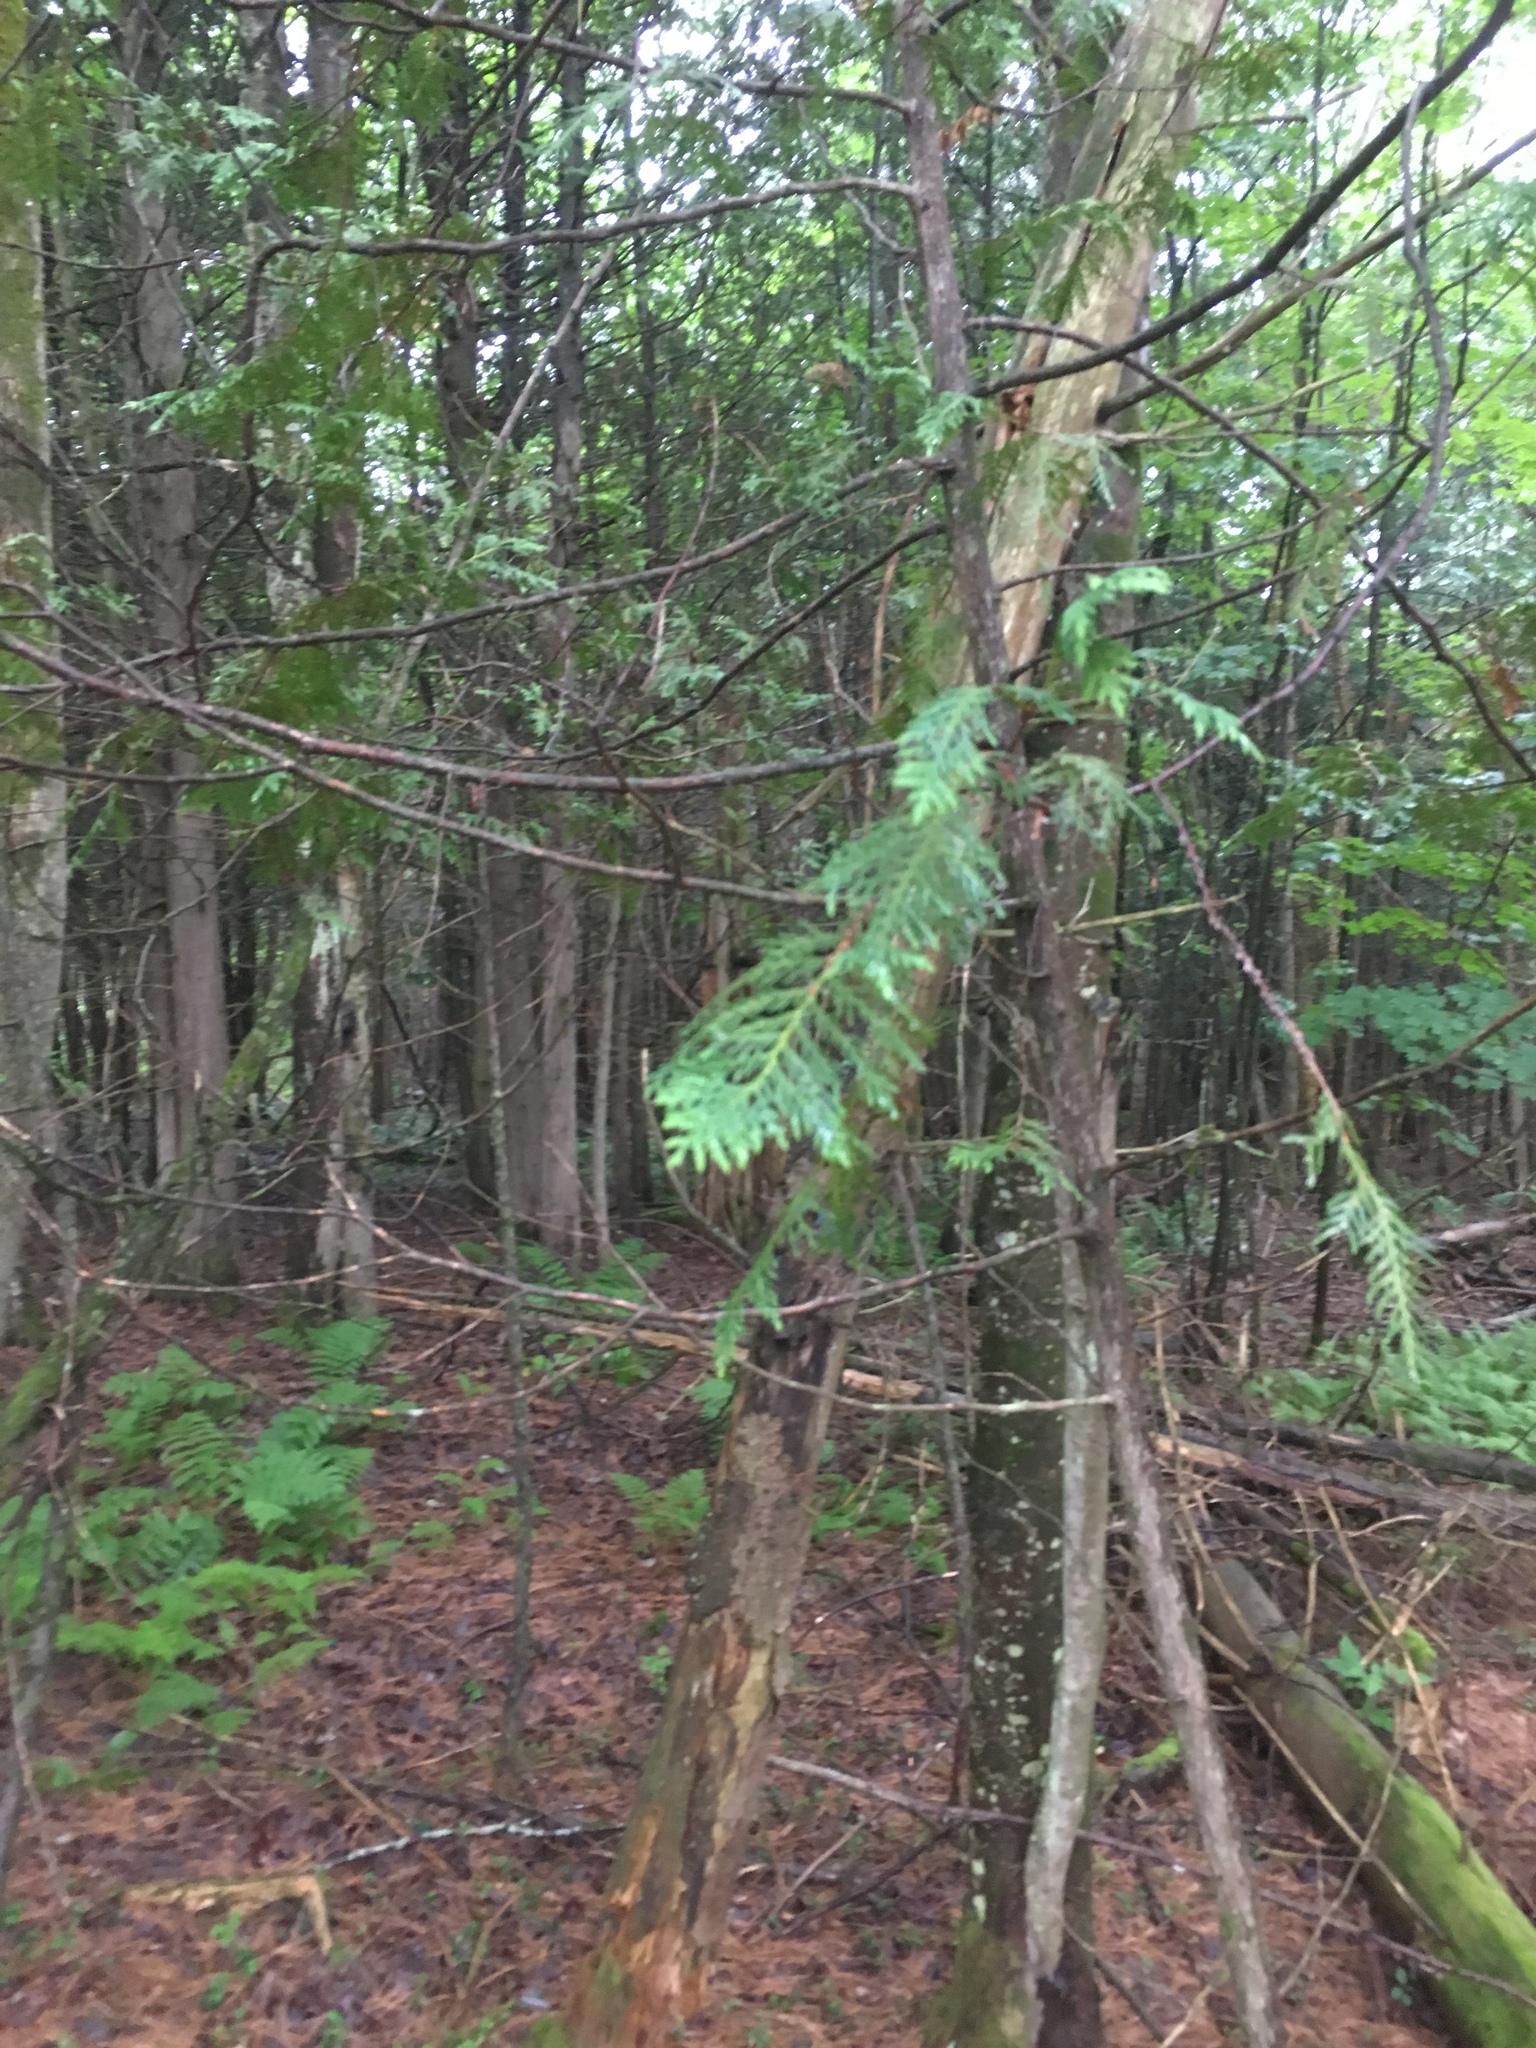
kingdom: Plantae
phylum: Tracheophyta
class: Pinopsida
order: Pinales
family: Cupressaceae
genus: Thuja
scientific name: Thuja occidentalis
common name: Northern white-cedar
